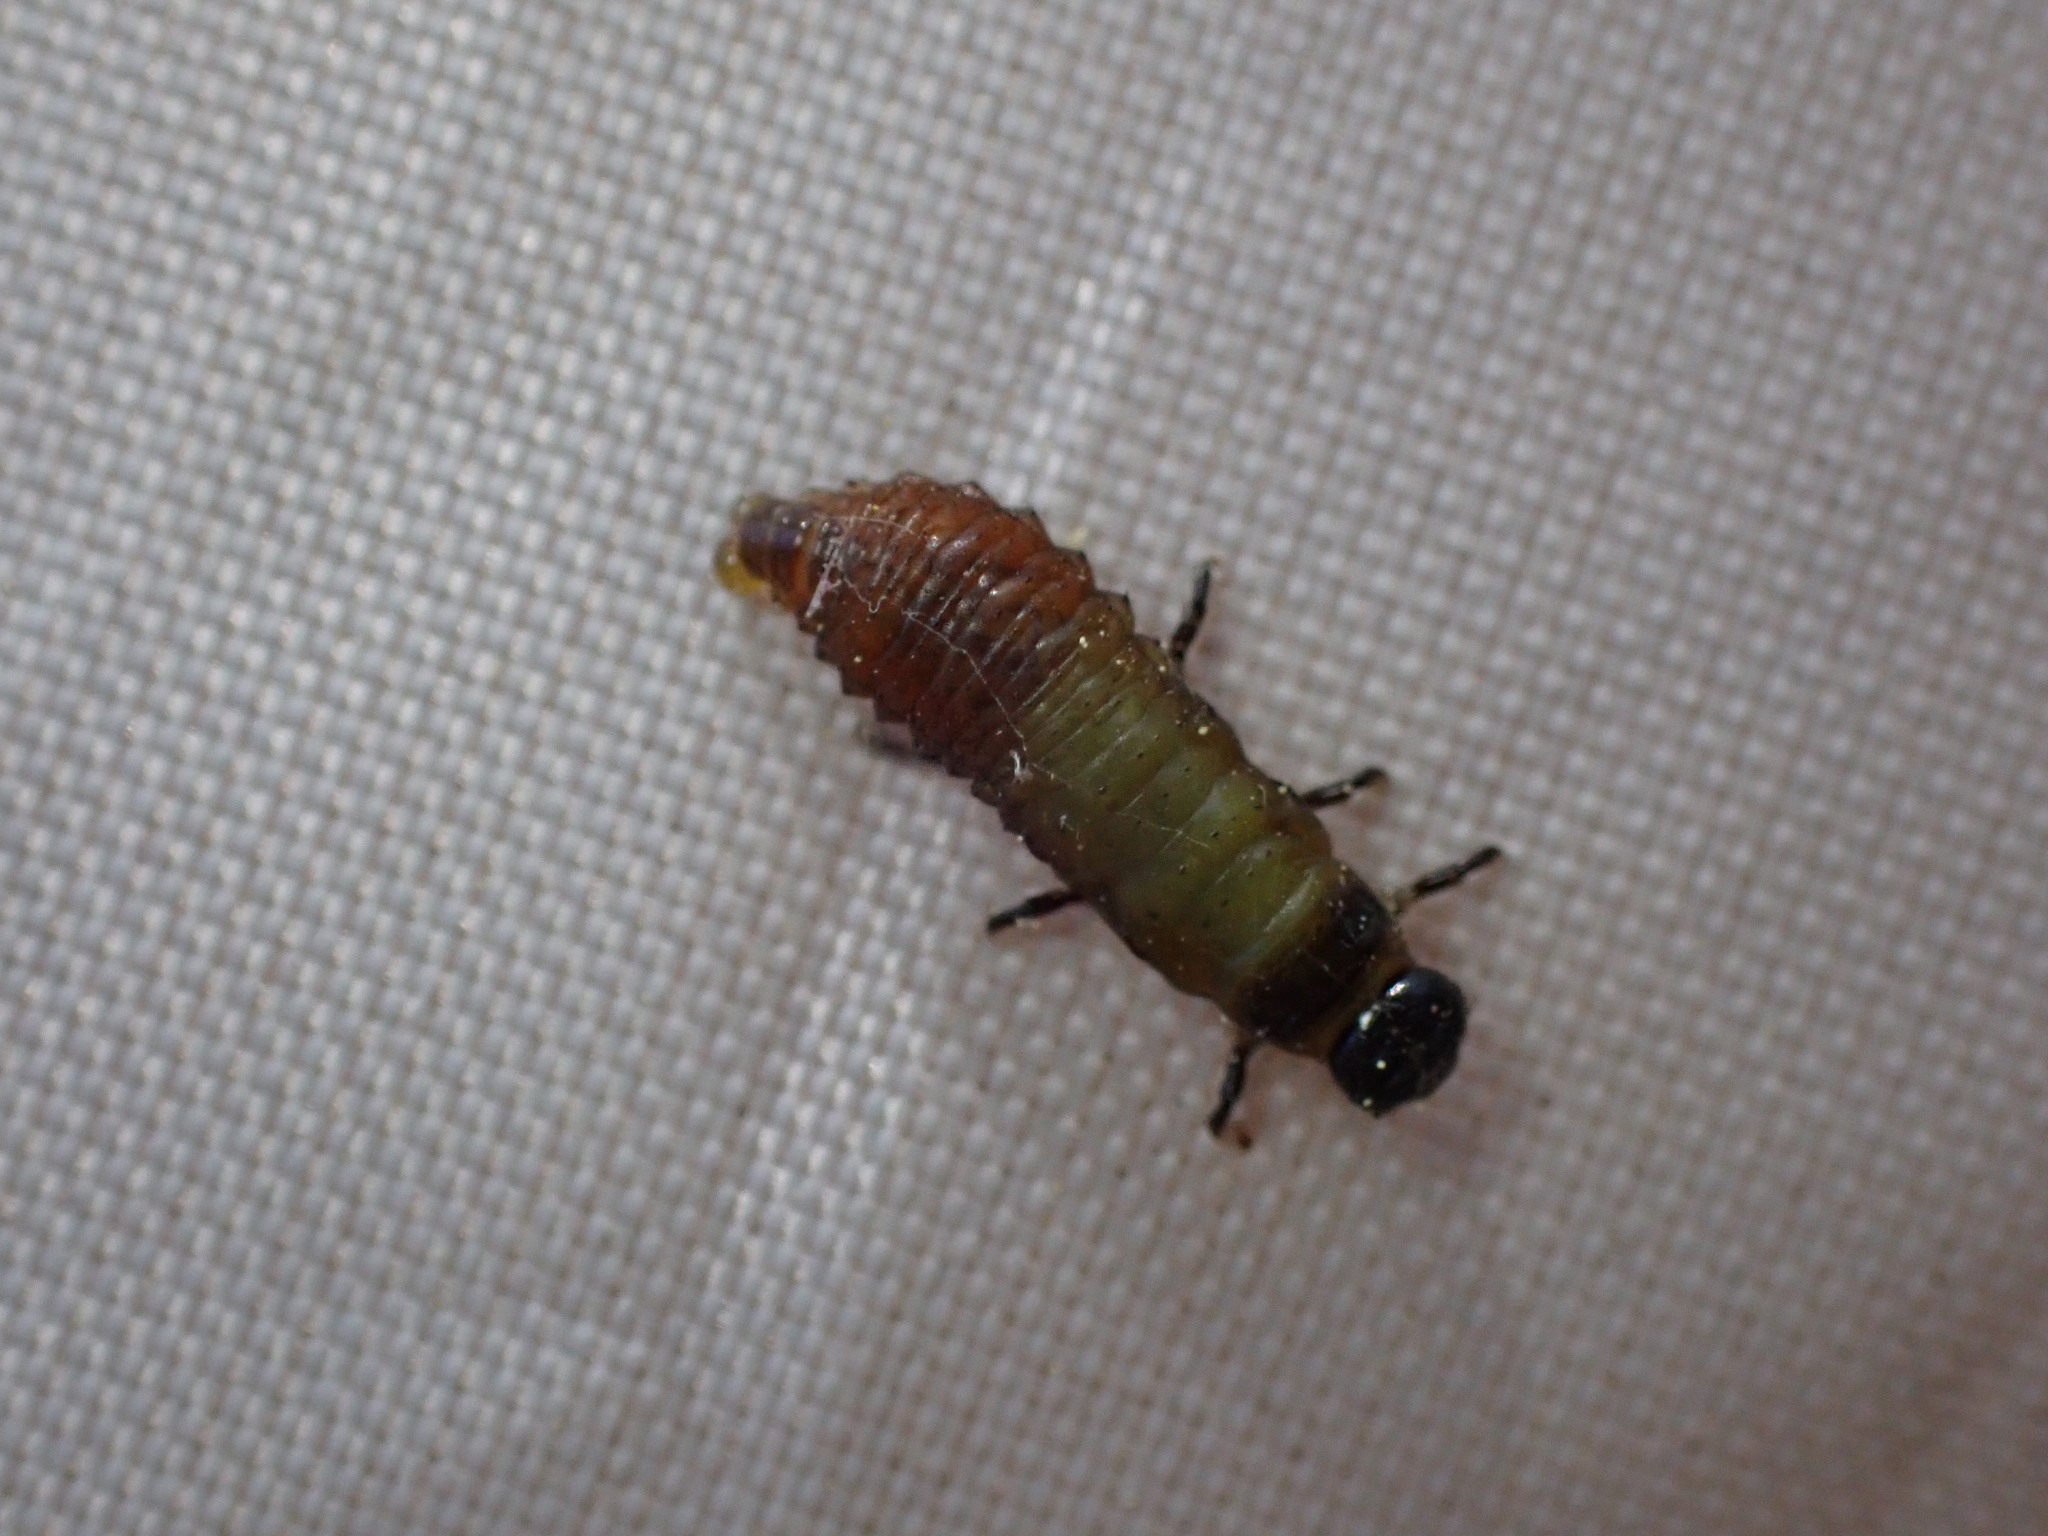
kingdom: Animalia
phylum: Arthropoda
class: Insecta
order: Coleoptera
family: Chrysomelidae
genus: Trachymela
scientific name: Trachymela sloanei
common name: Australian tortoise beetle
